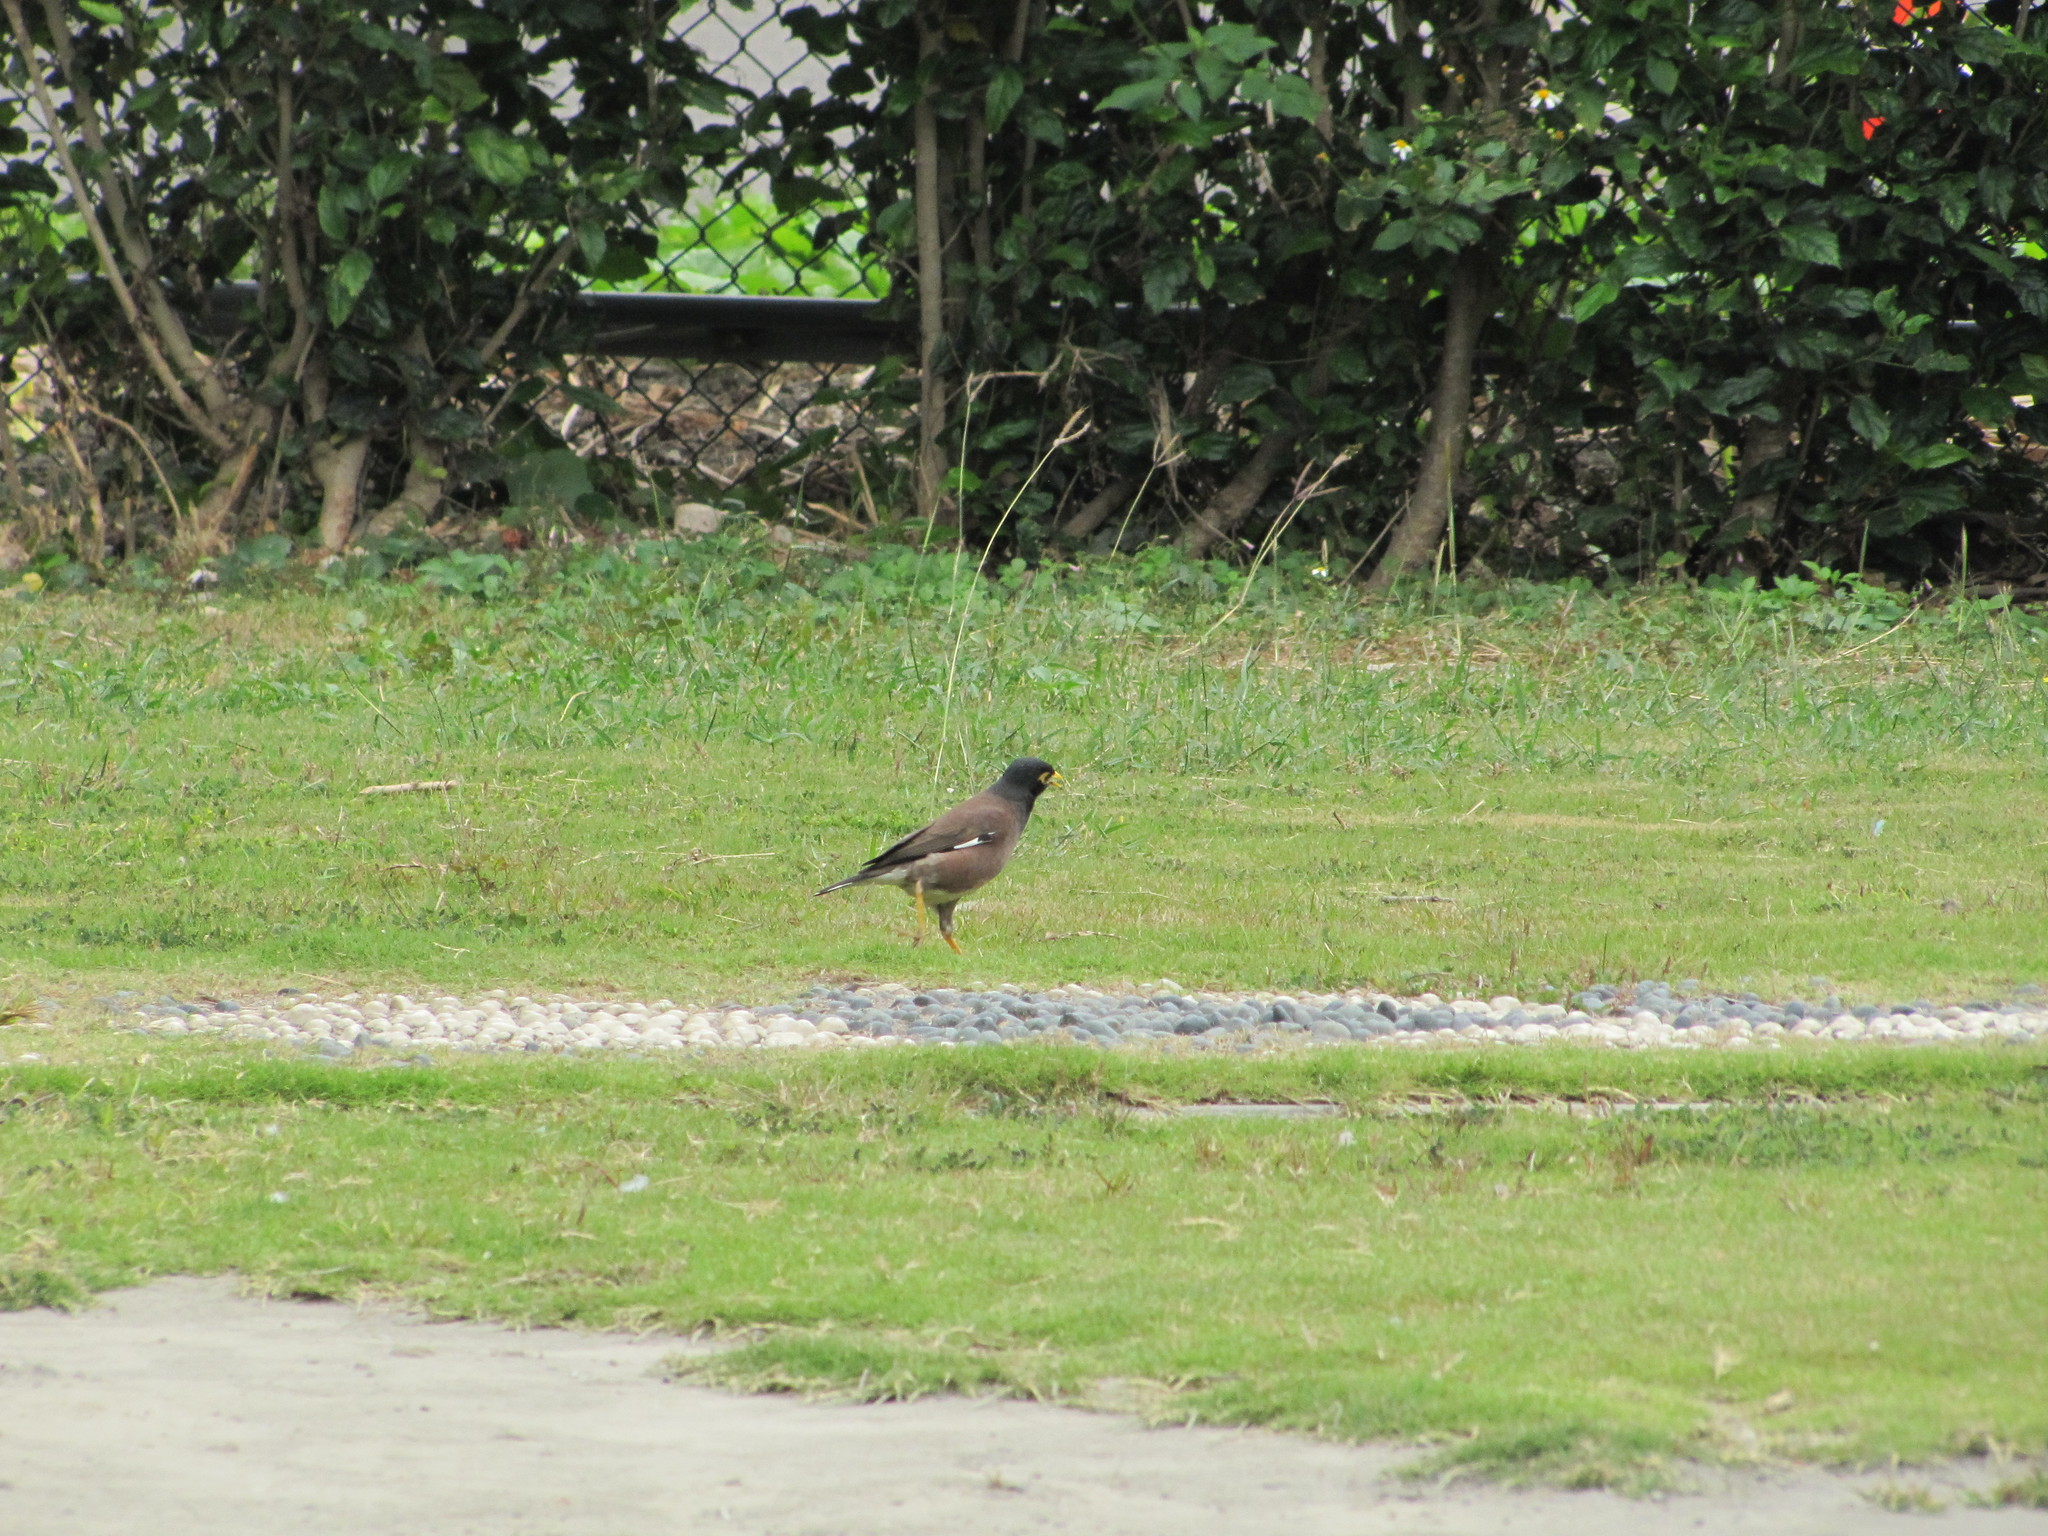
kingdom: Animalia
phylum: Chordata
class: Aves
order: Passeriformes
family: Sturnidae
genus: Acridotheres
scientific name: Acridotheres tristis
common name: Common myna
